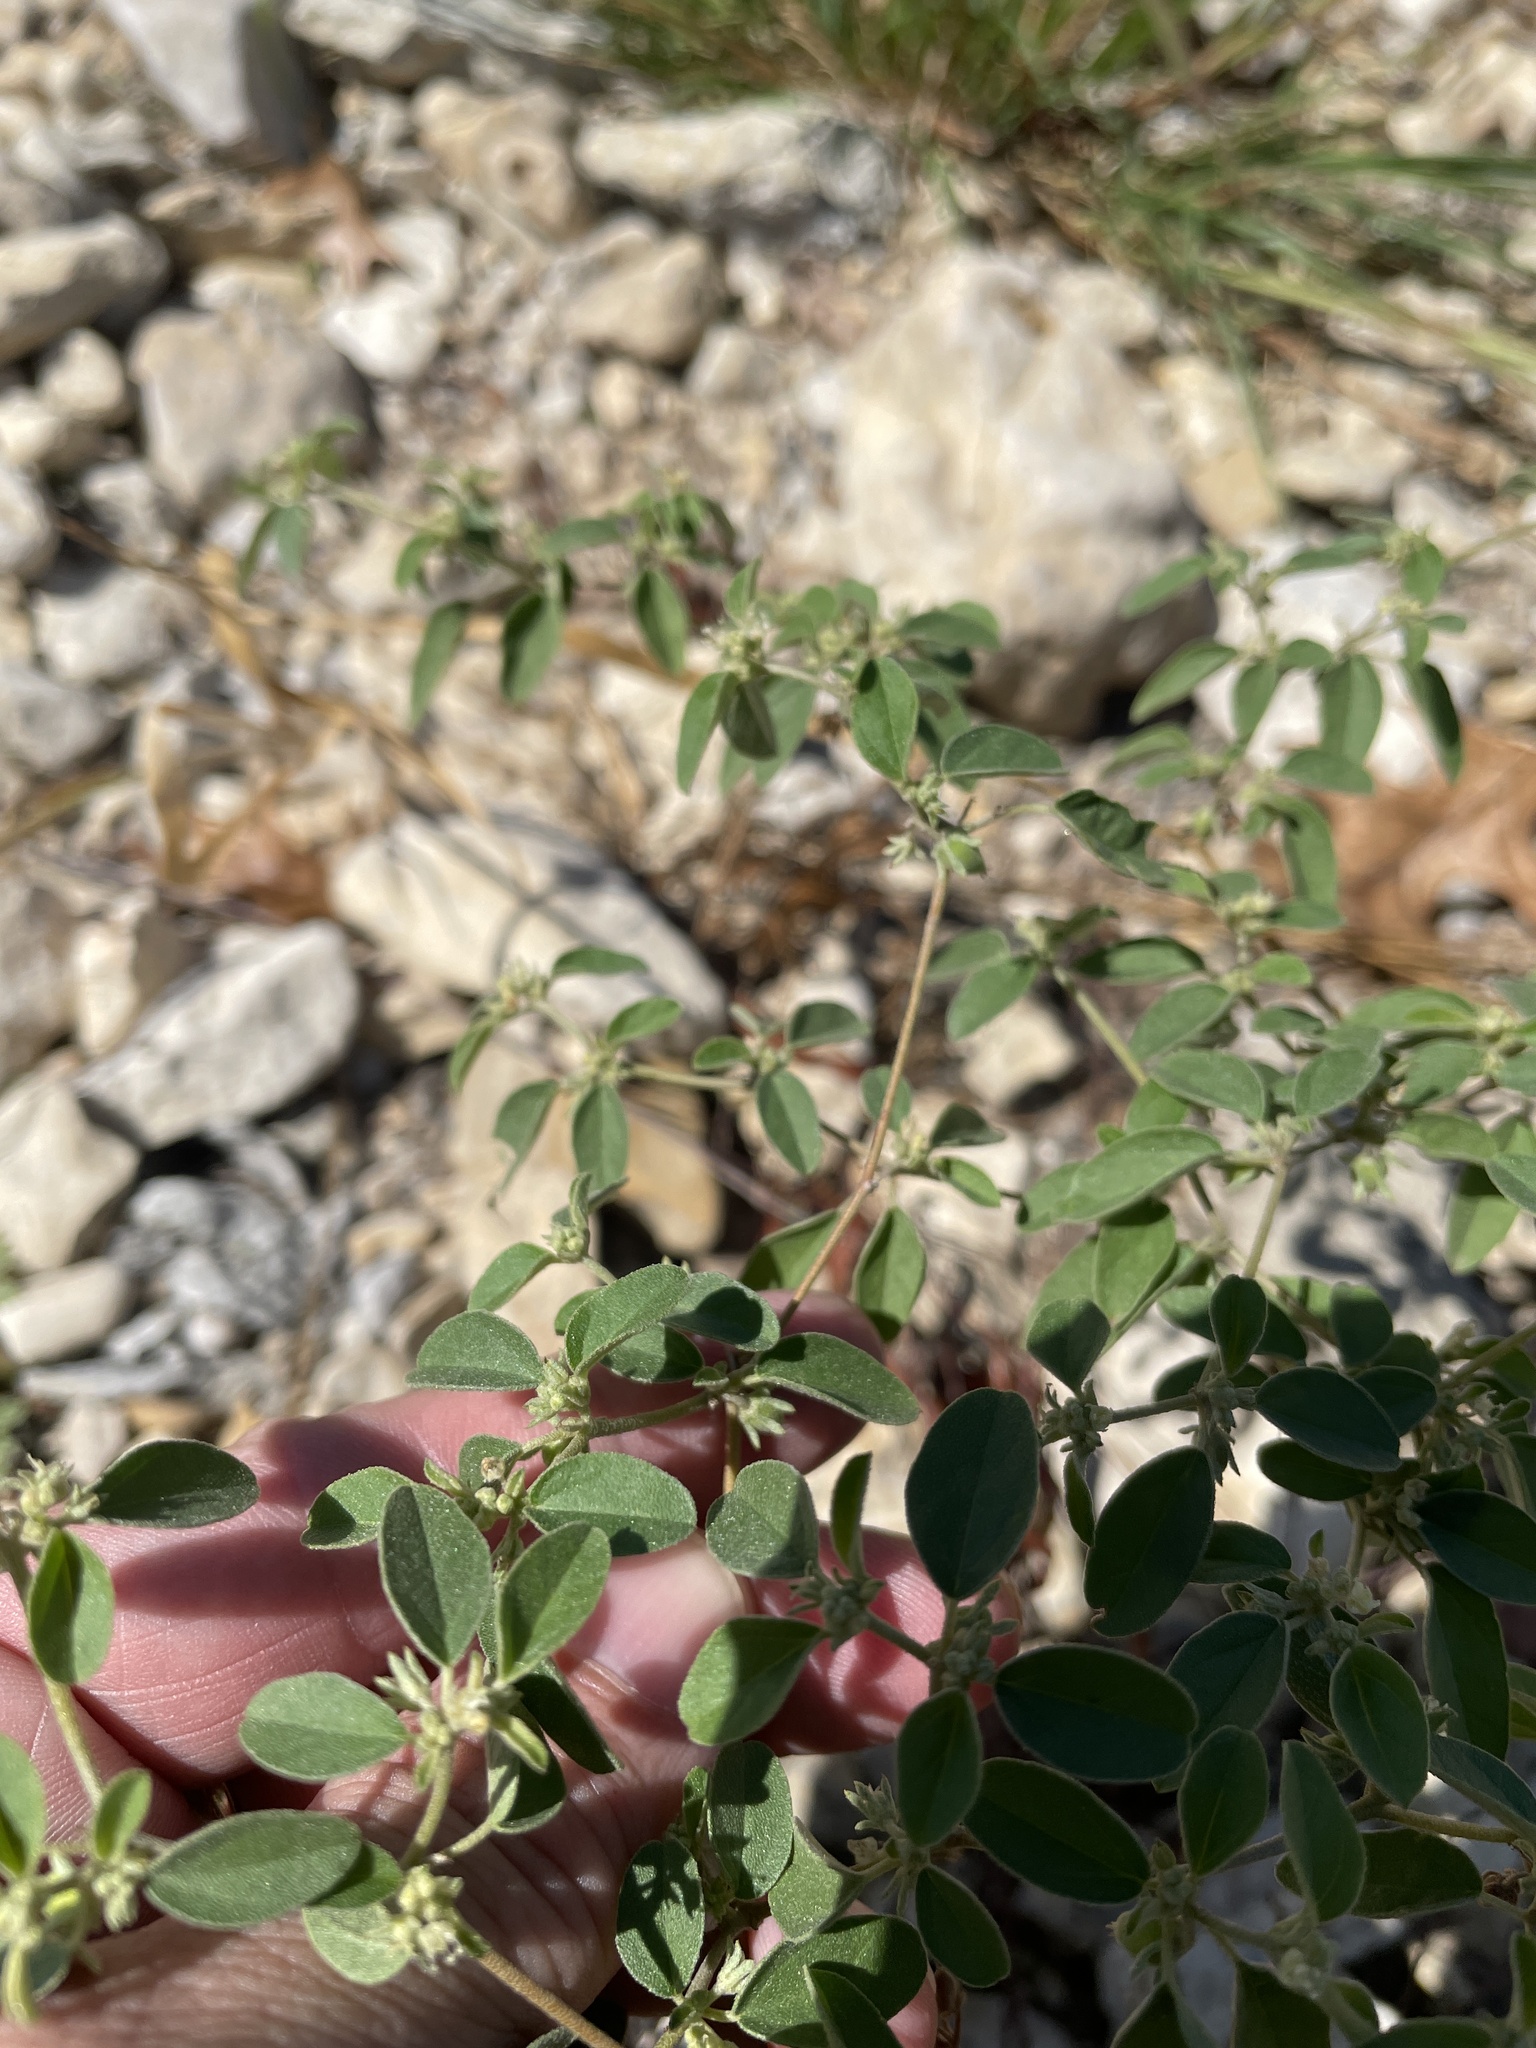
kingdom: Plantae
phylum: Tracheophyta
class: Magnoliopsida
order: Malpighiales
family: Euphorbiaceae
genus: Croton
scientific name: Croton monanthogynus
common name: One-seed croton
